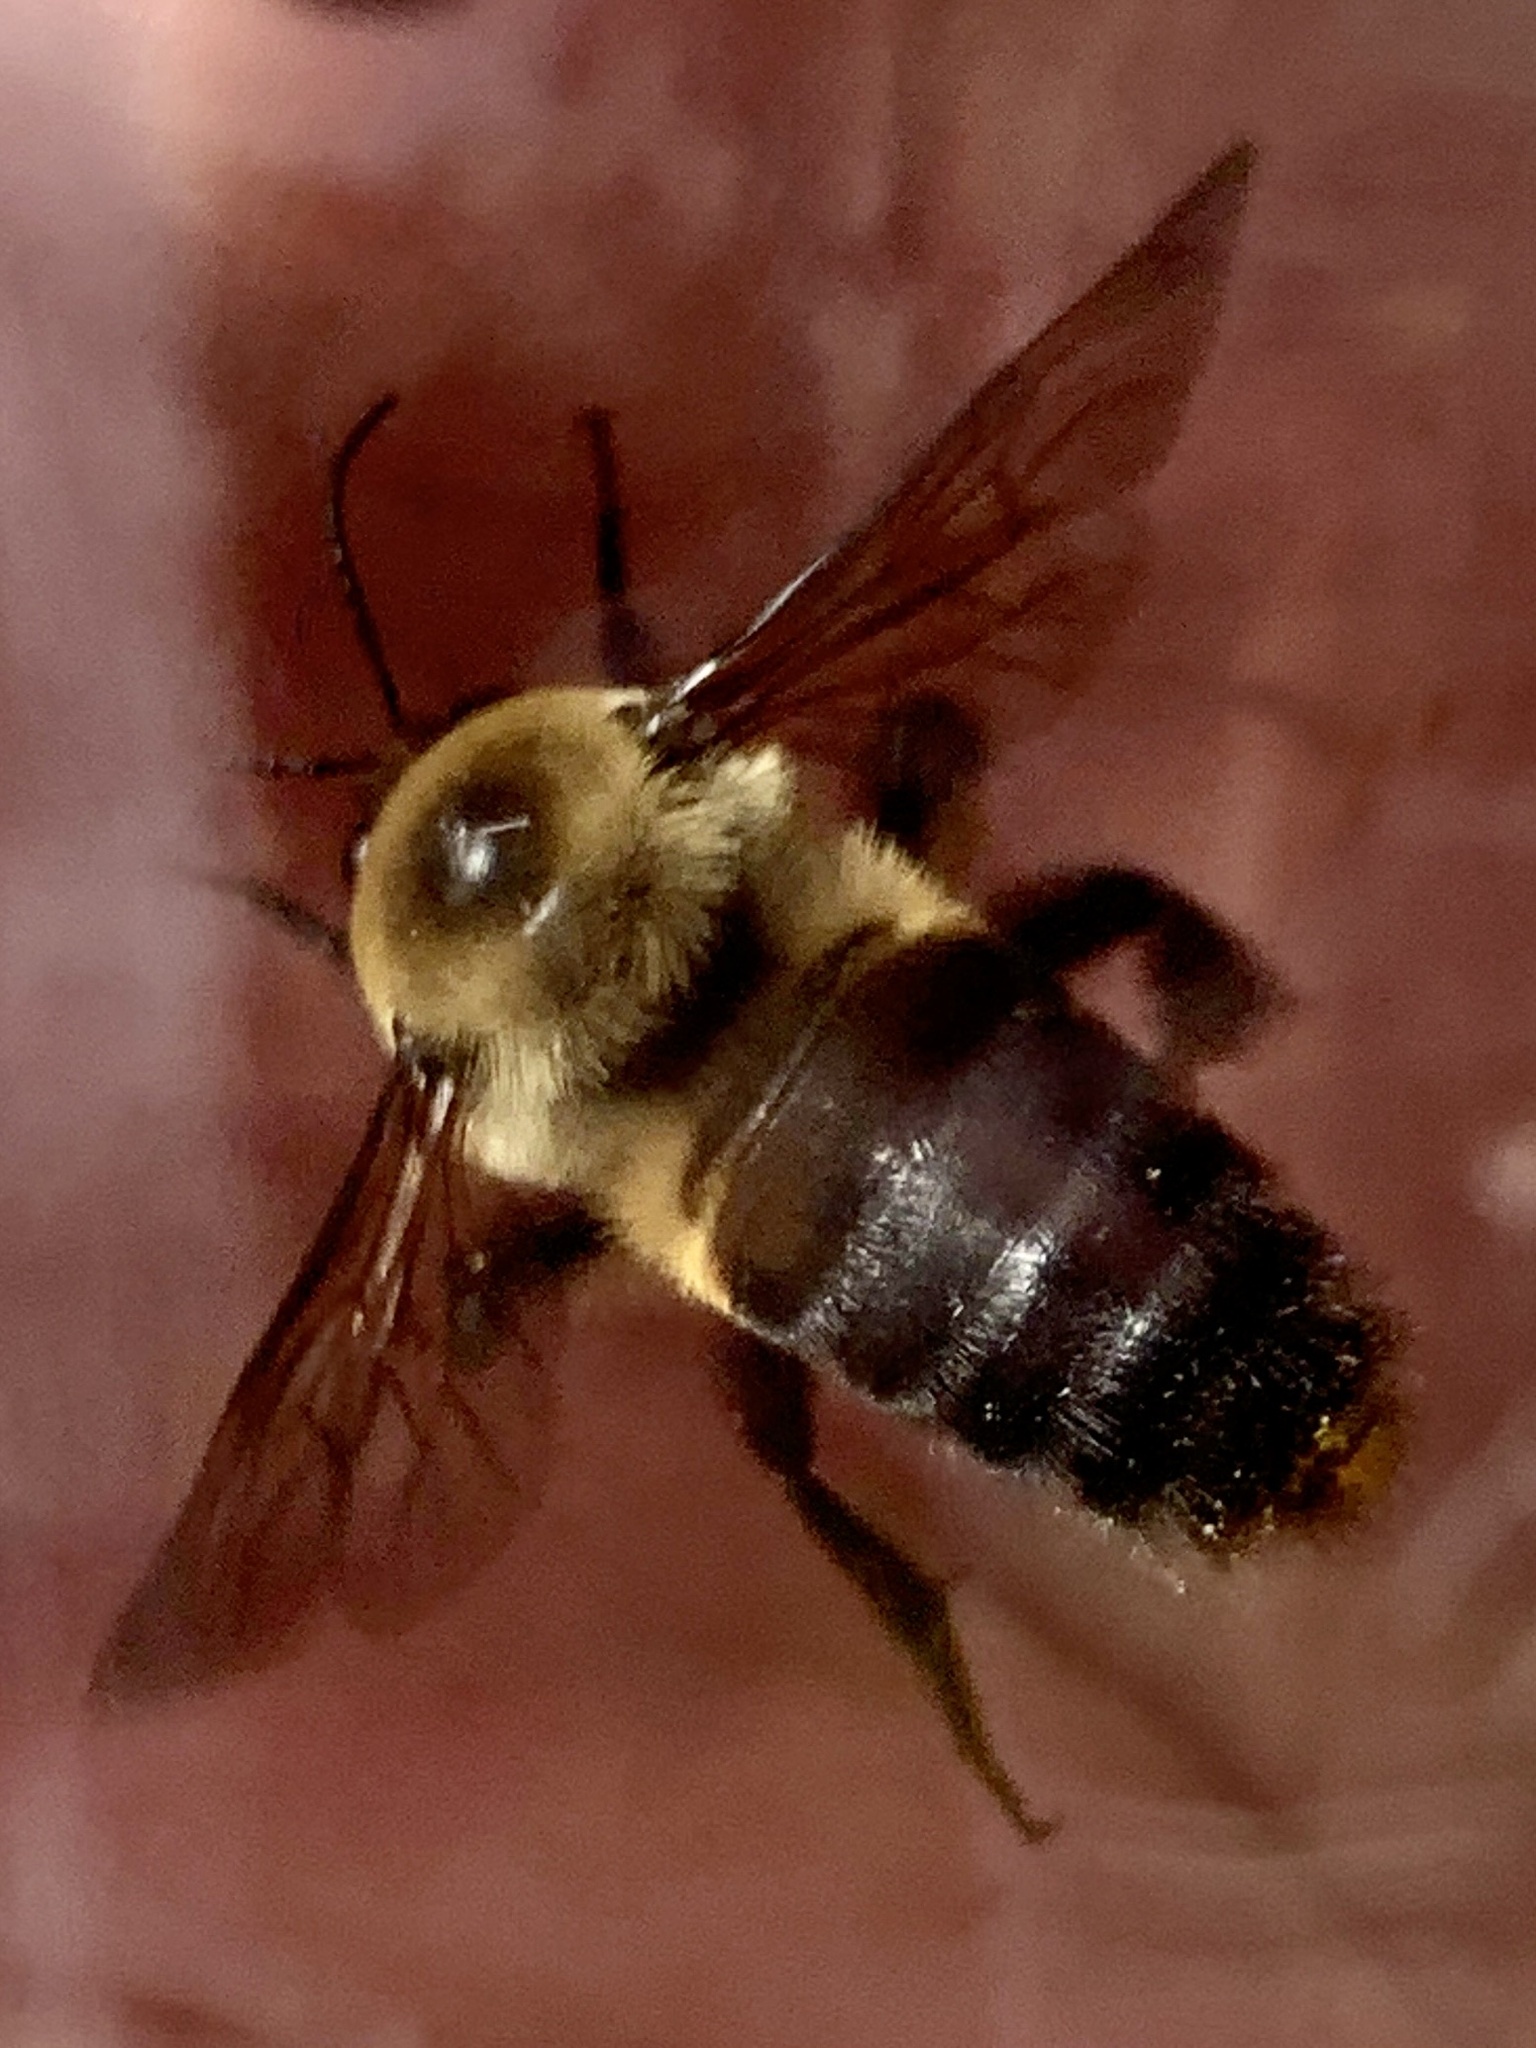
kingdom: Animalia
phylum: Arthropoda
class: Insecta
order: Hymenoptera
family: Apidae
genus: Bombus
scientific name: Bombus griseocollis
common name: Brown-belted bumble bee
